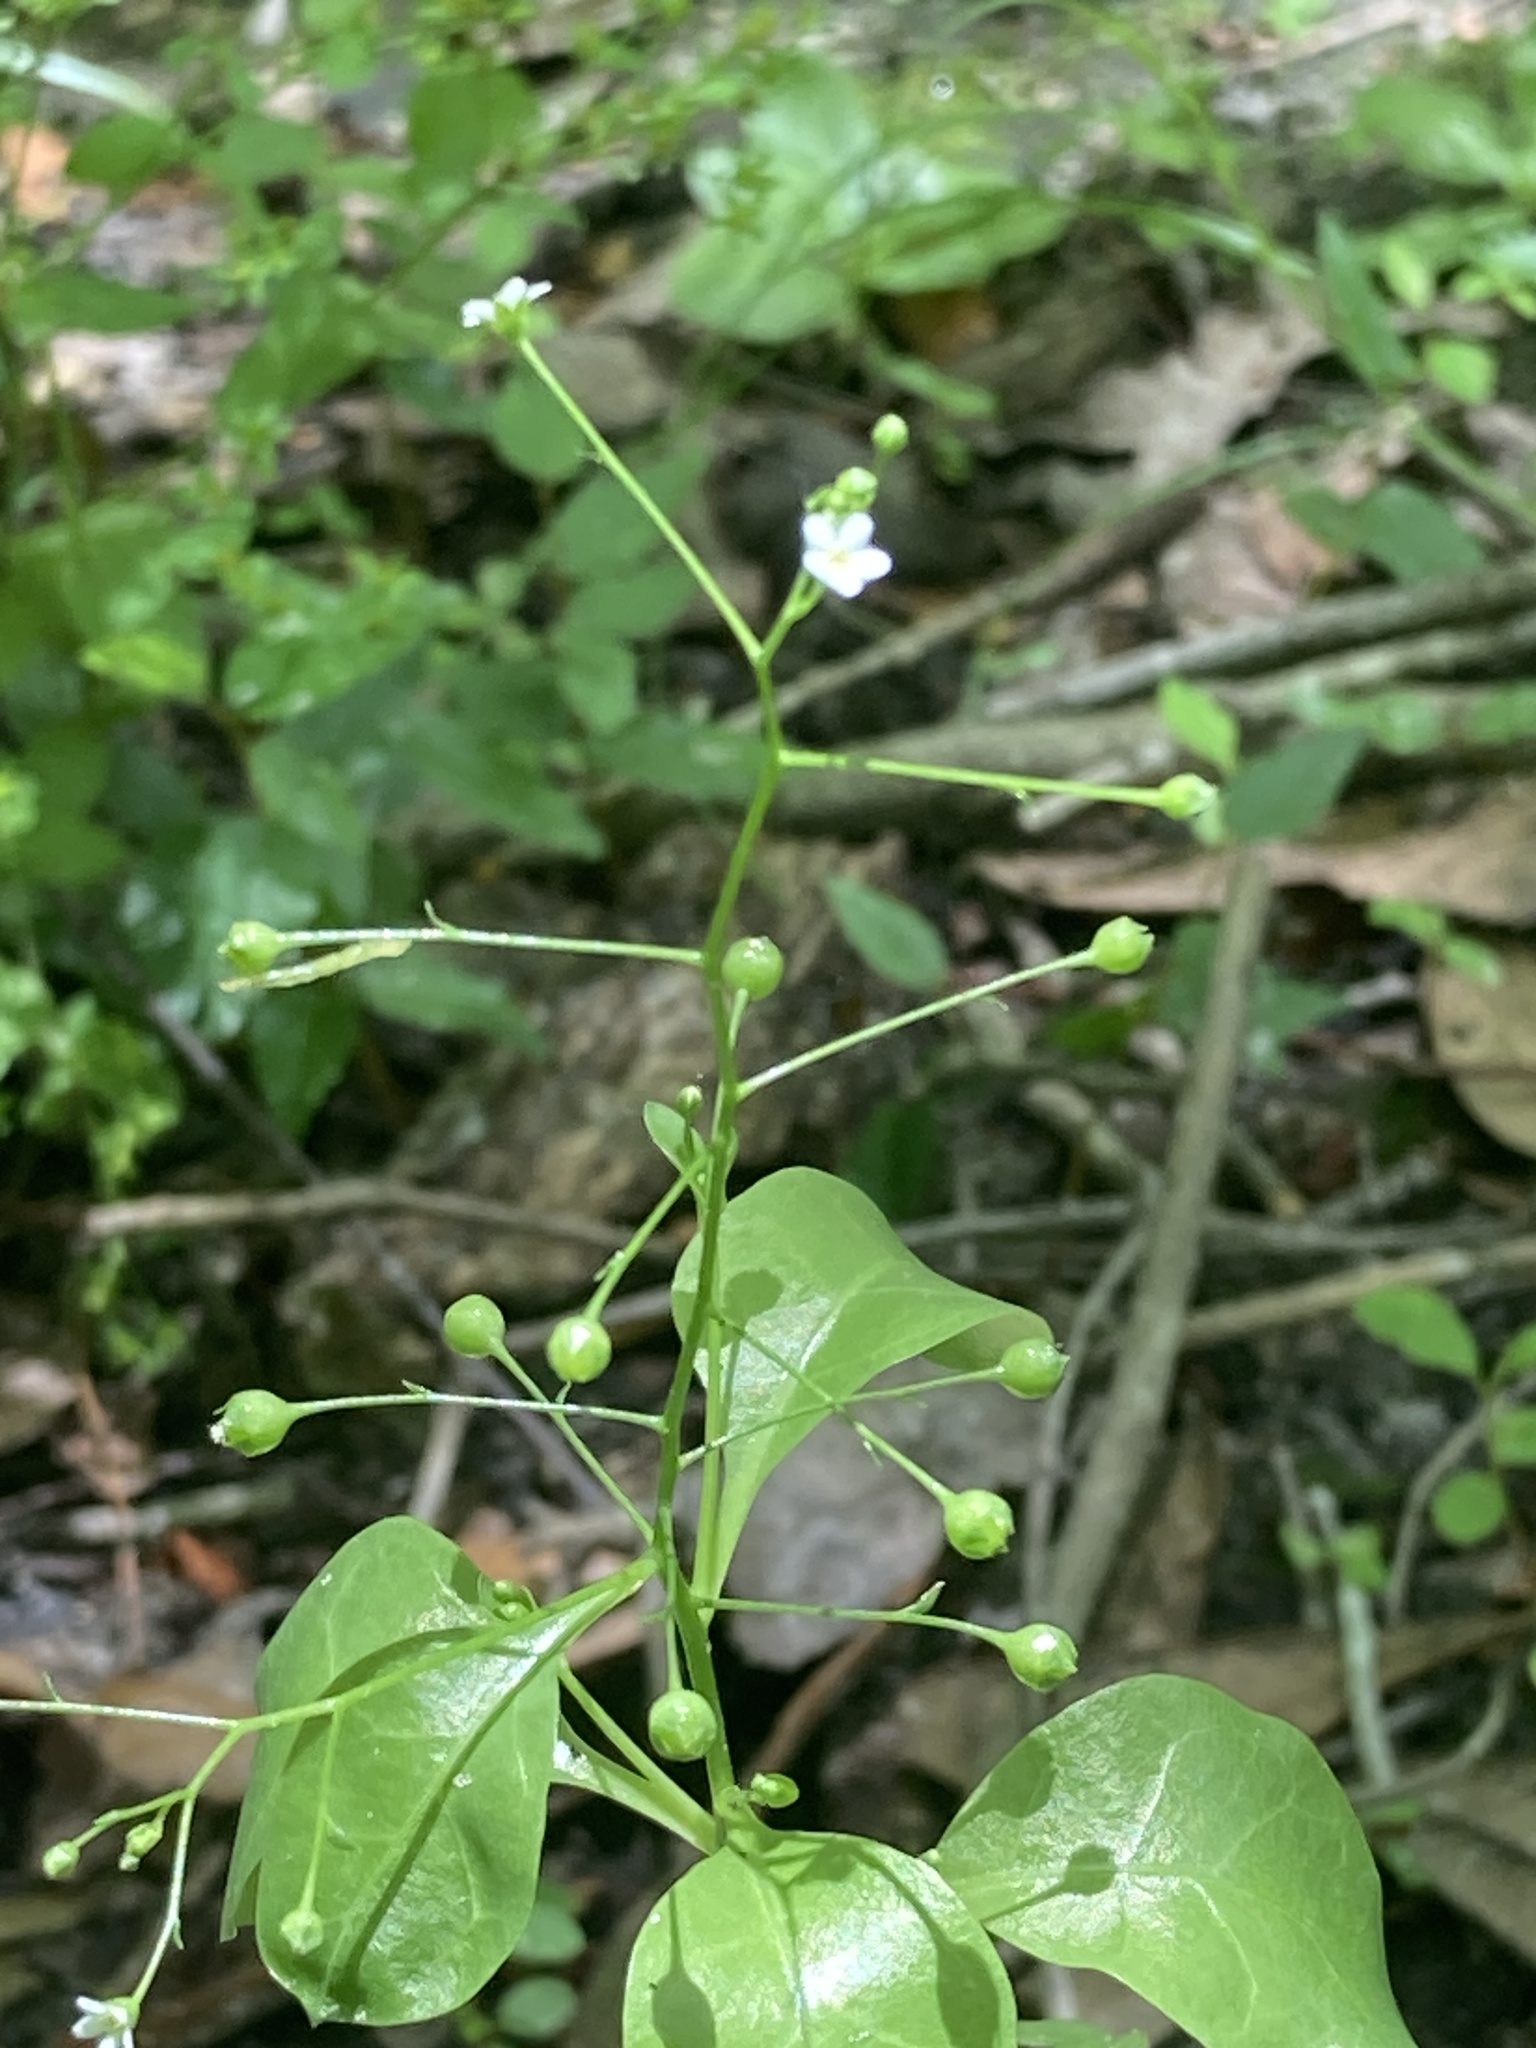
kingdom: Plantae
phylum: Tracheophyta
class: Magnoliopsida
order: Ericales
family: Primulaceae
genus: Samolus
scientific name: Samolus parviflorus
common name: False water pimpernel
